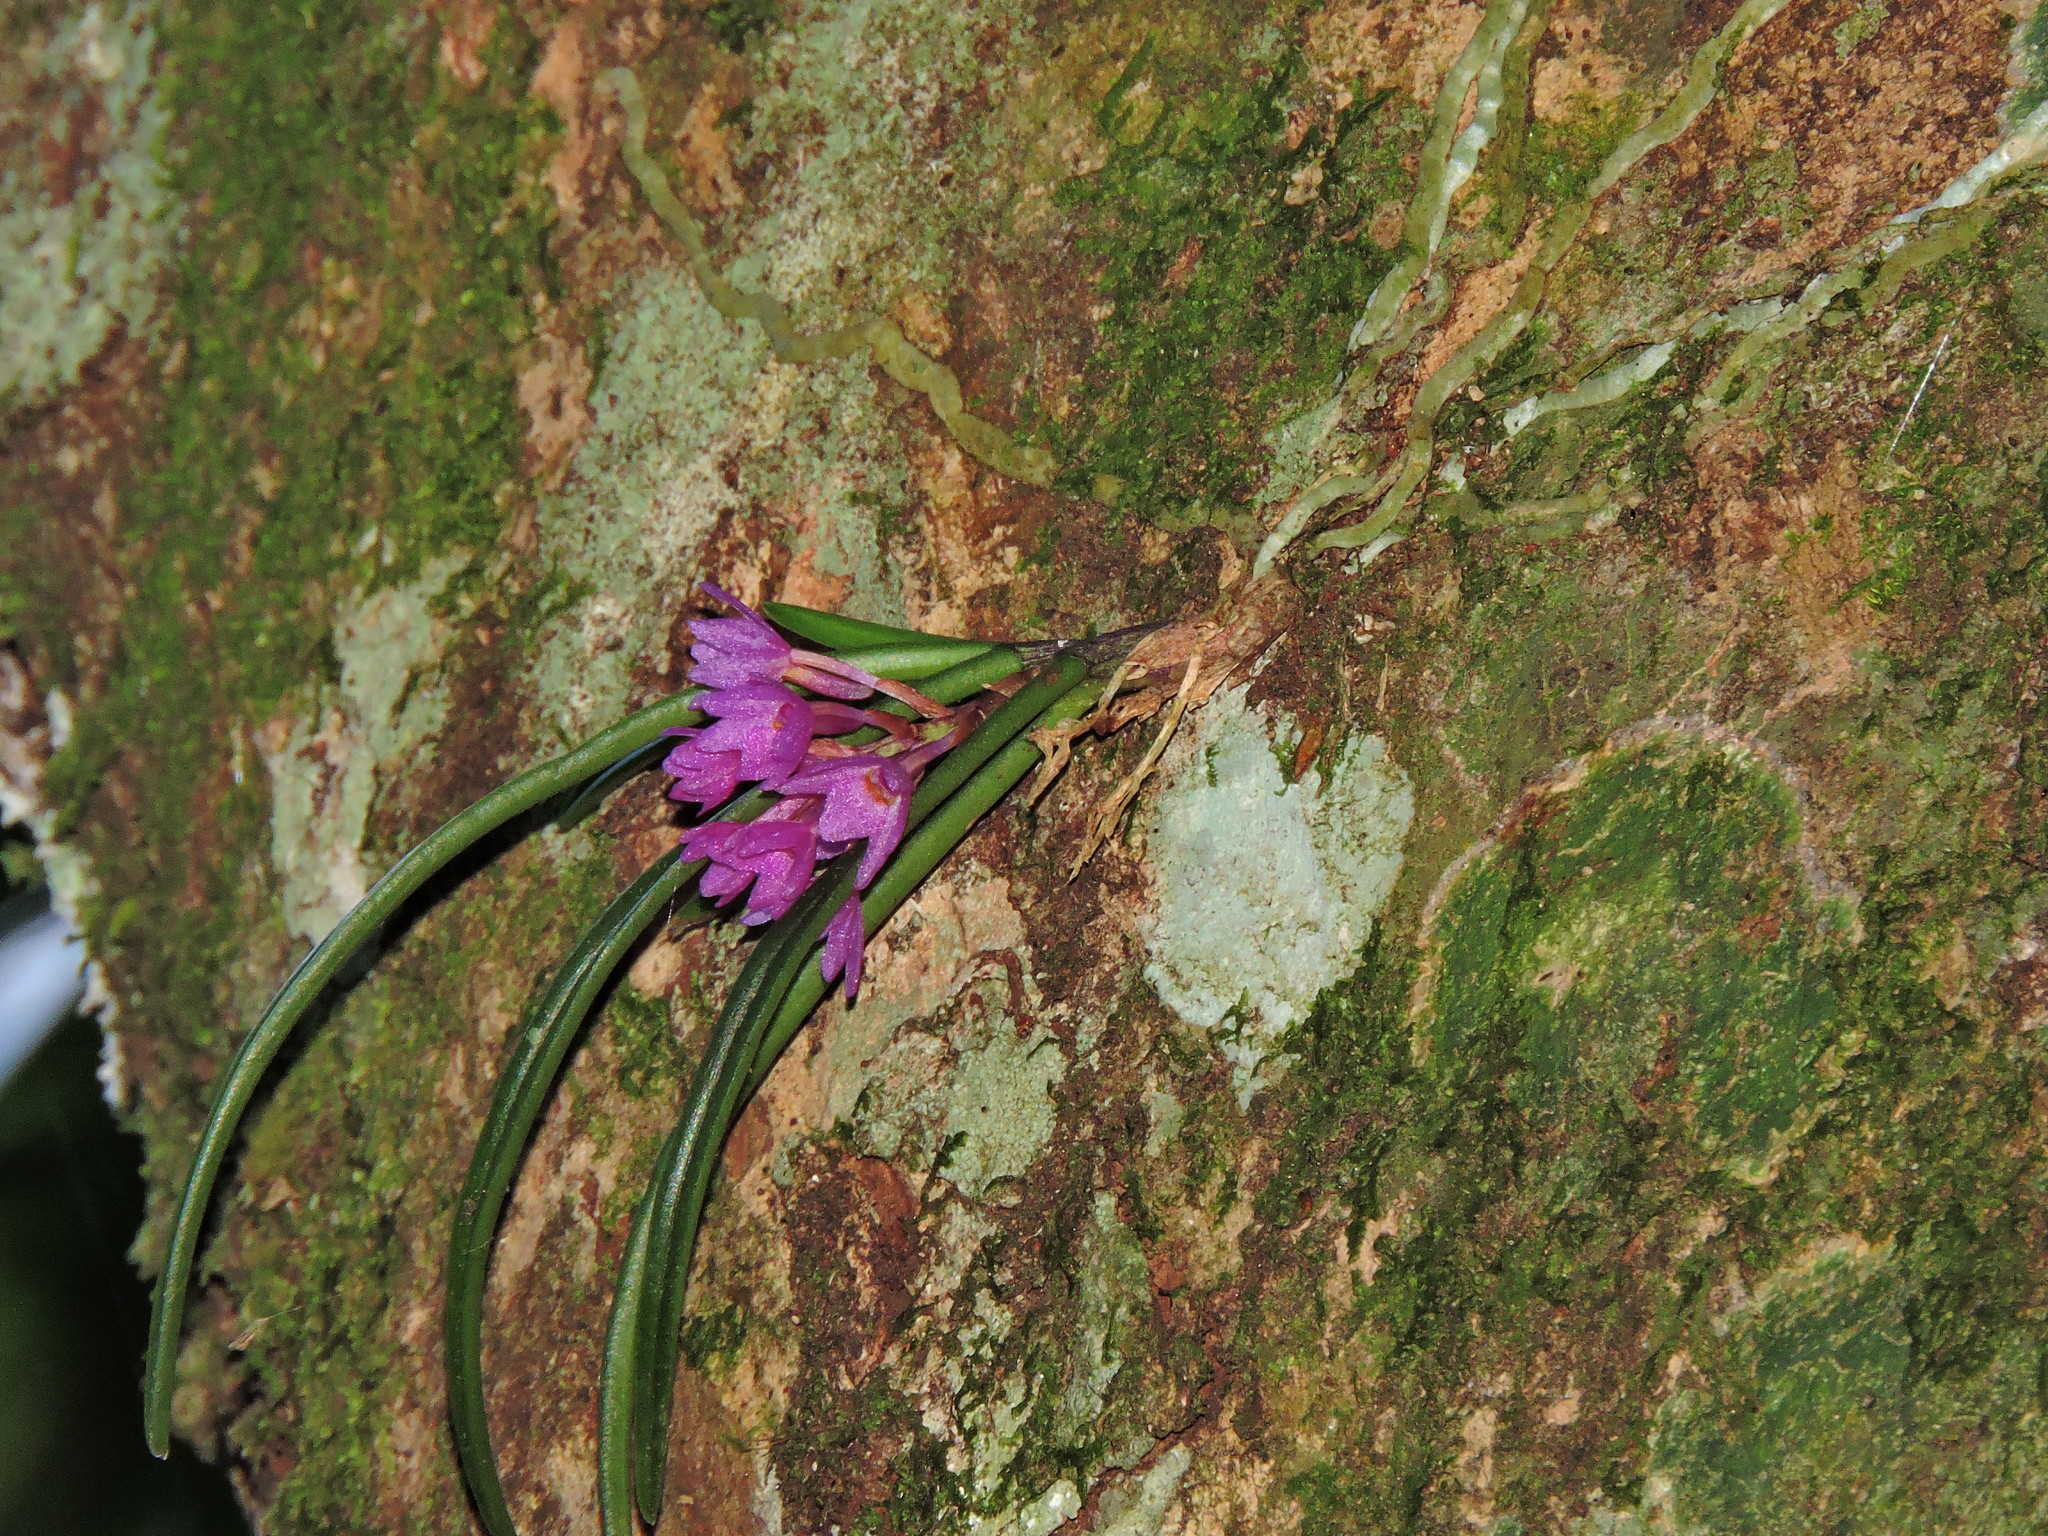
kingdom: Plantae
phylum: Tracheophyta
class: Liliopsida
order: Asparagales
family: Orchidaceae
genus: Holcoglossum
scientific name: Holcoglossum pumilum
